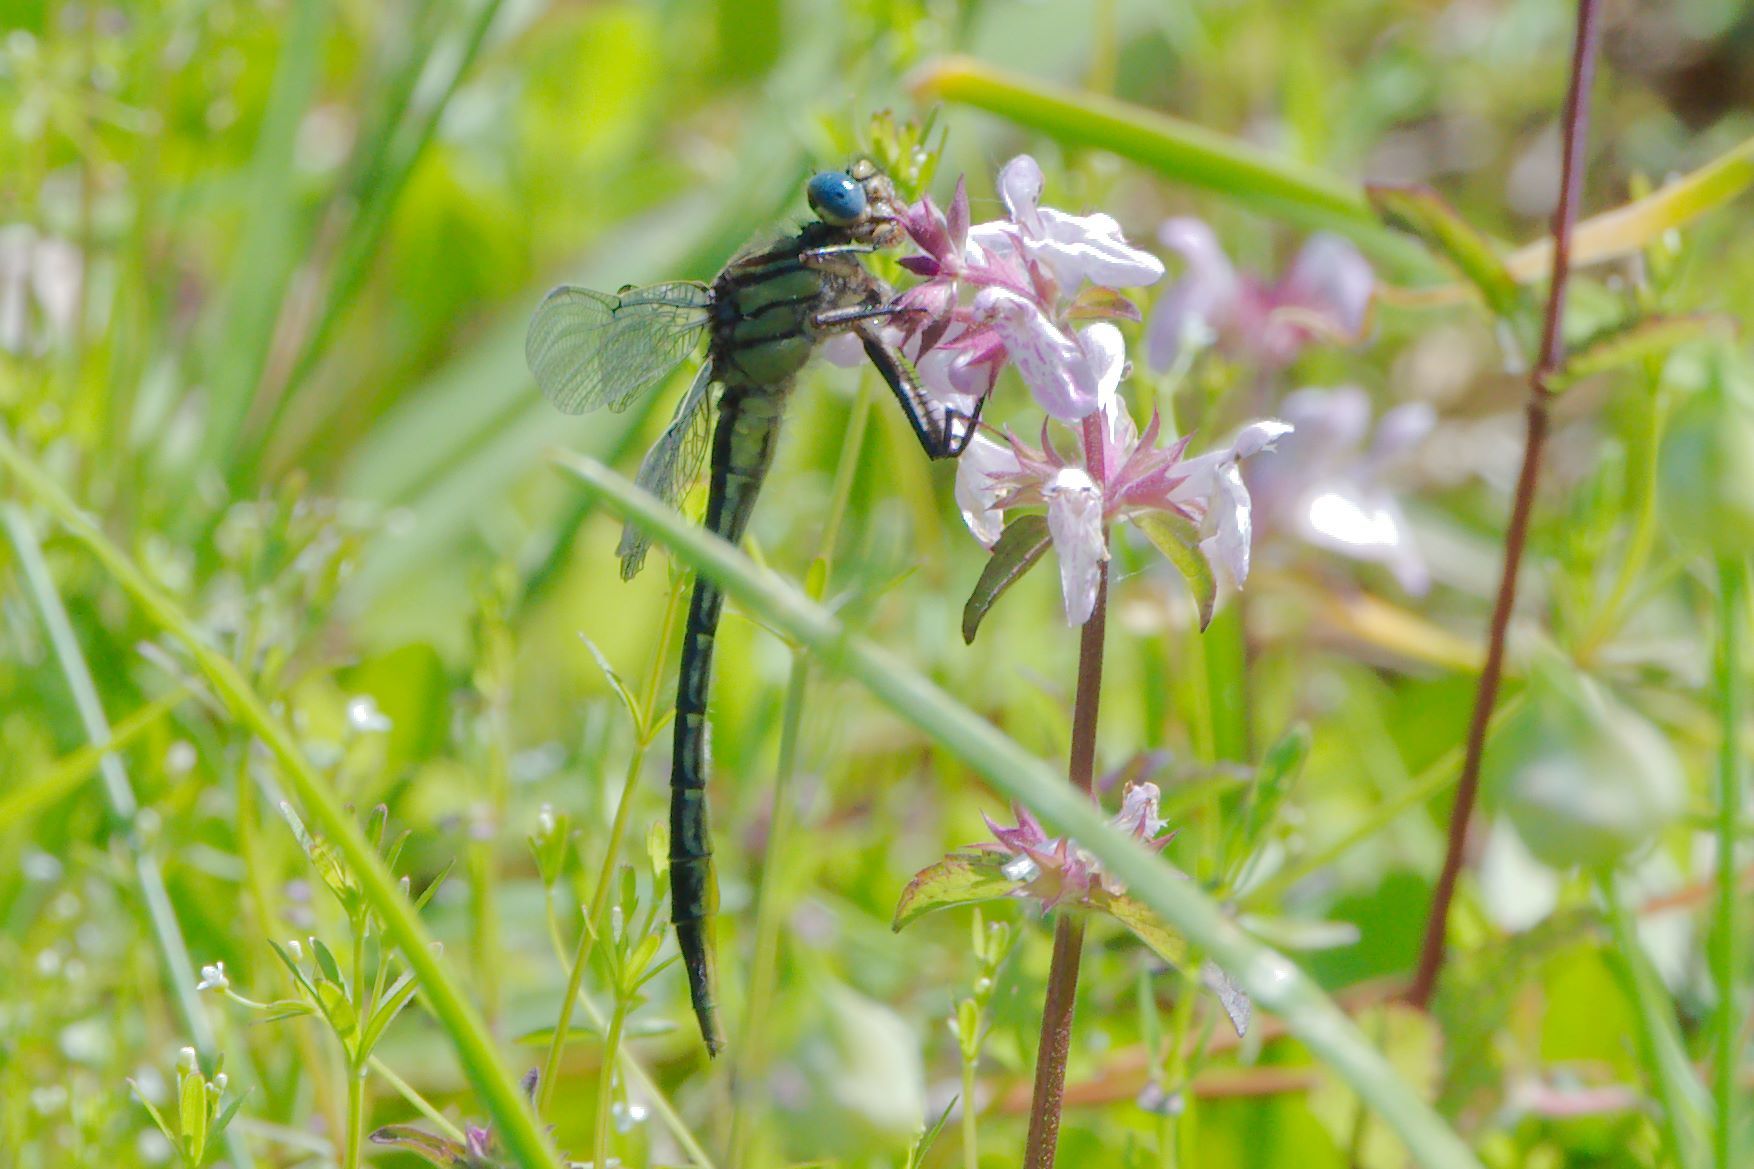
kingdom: Animalia
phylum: Arthropoda
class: Insecta
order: Odonata
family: Gomphidae
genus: Phanogomphus
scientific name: Phanogomphus australis
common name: Clearlake clubtail
